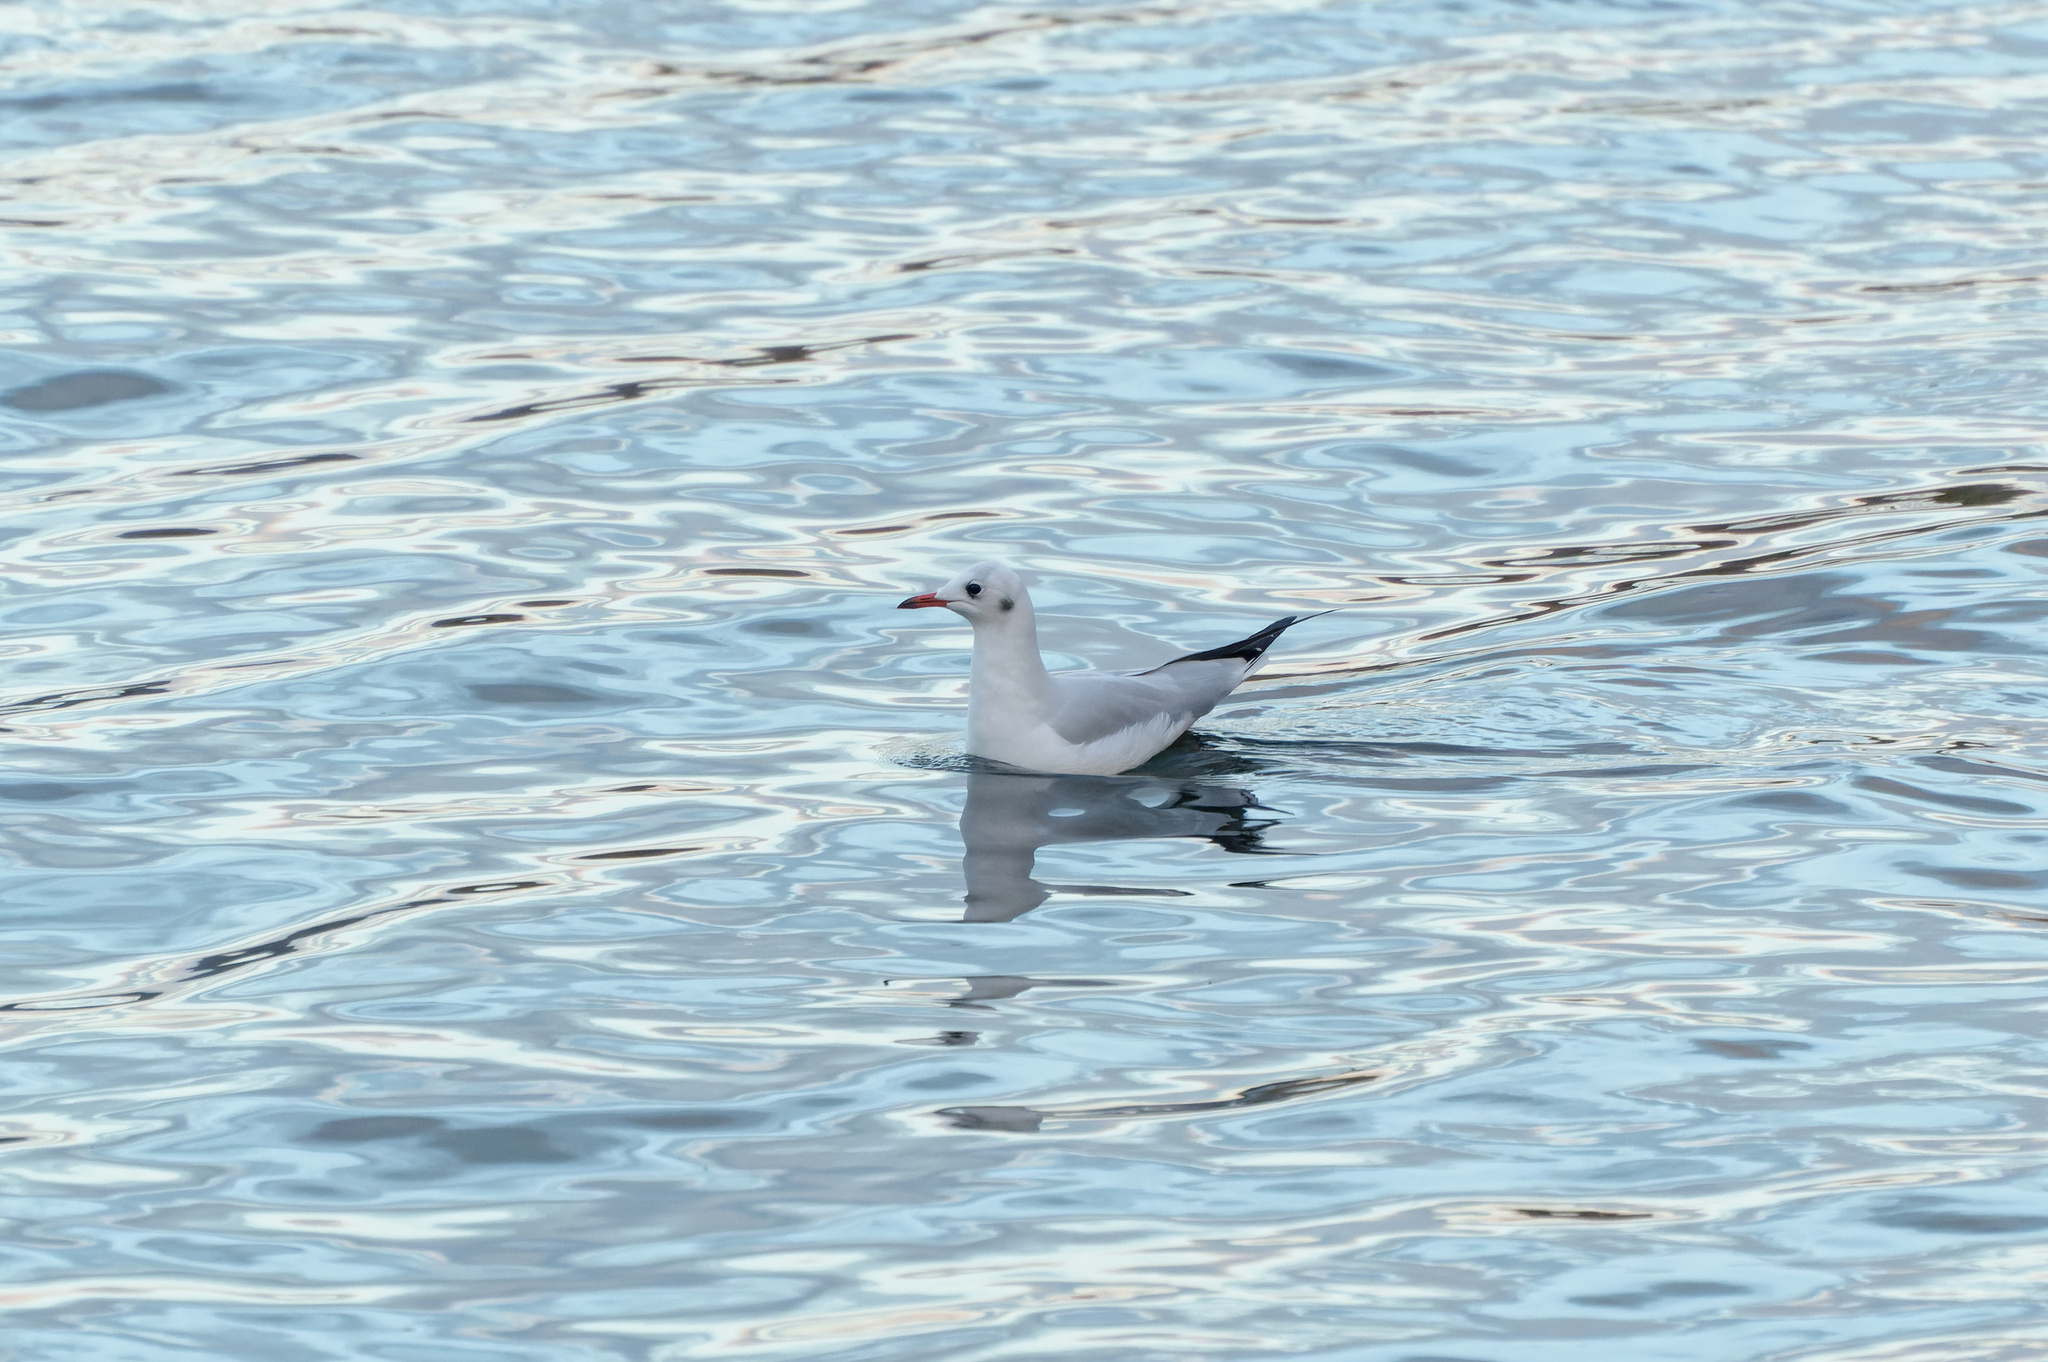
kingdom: Animalia
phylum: Chordata
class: Aves
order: Charadriiformes
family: Laridae
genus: Chroicocephalus
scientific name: Chroicocephalus ridibundus
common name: Black-headed gull
